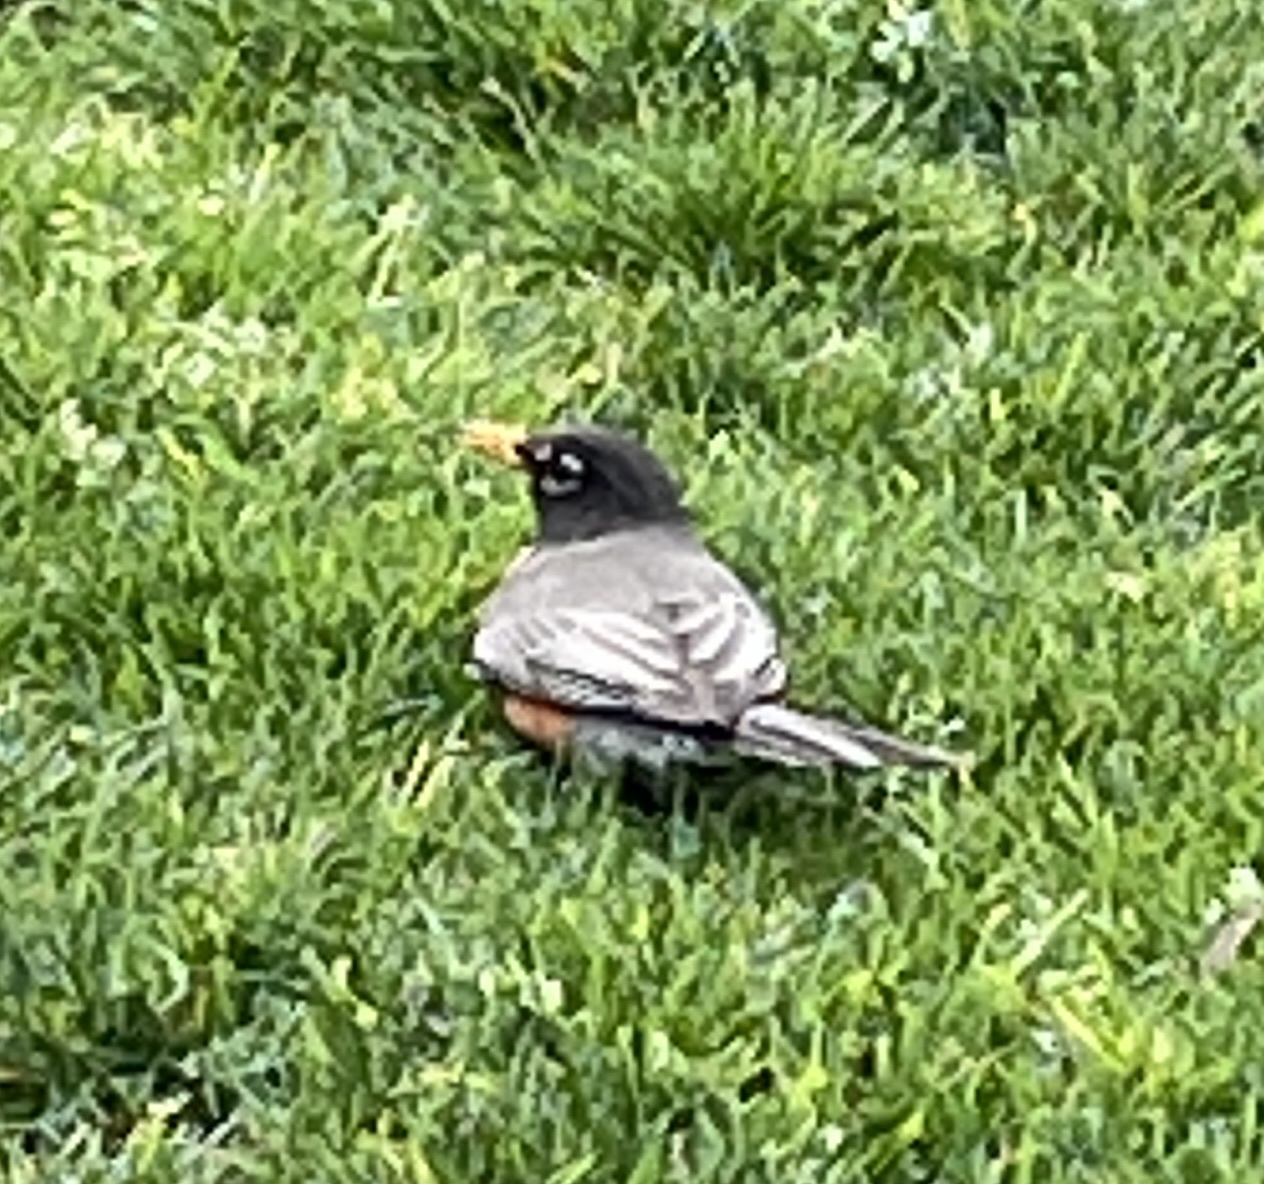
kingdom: Animalia
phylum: Chordata
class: Aves
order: Passeriformes
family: Turdidae
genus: Turdus
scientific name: Turdus migratorius
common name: American robin
